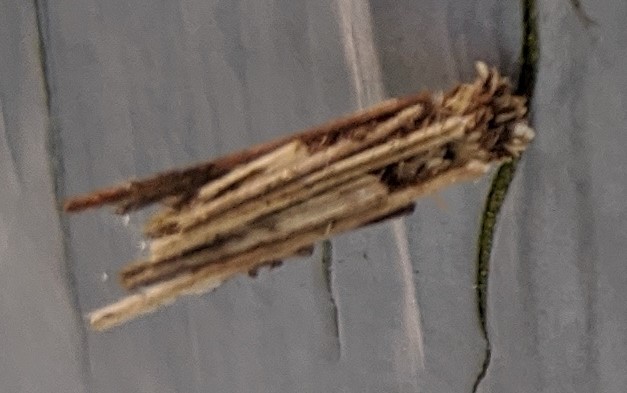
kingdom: Animalia
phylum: Arthropoda
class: Insecta
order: Lepidoptera
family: Psychidae
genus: Psyche
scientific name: Psyche casta
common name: Common sweep
